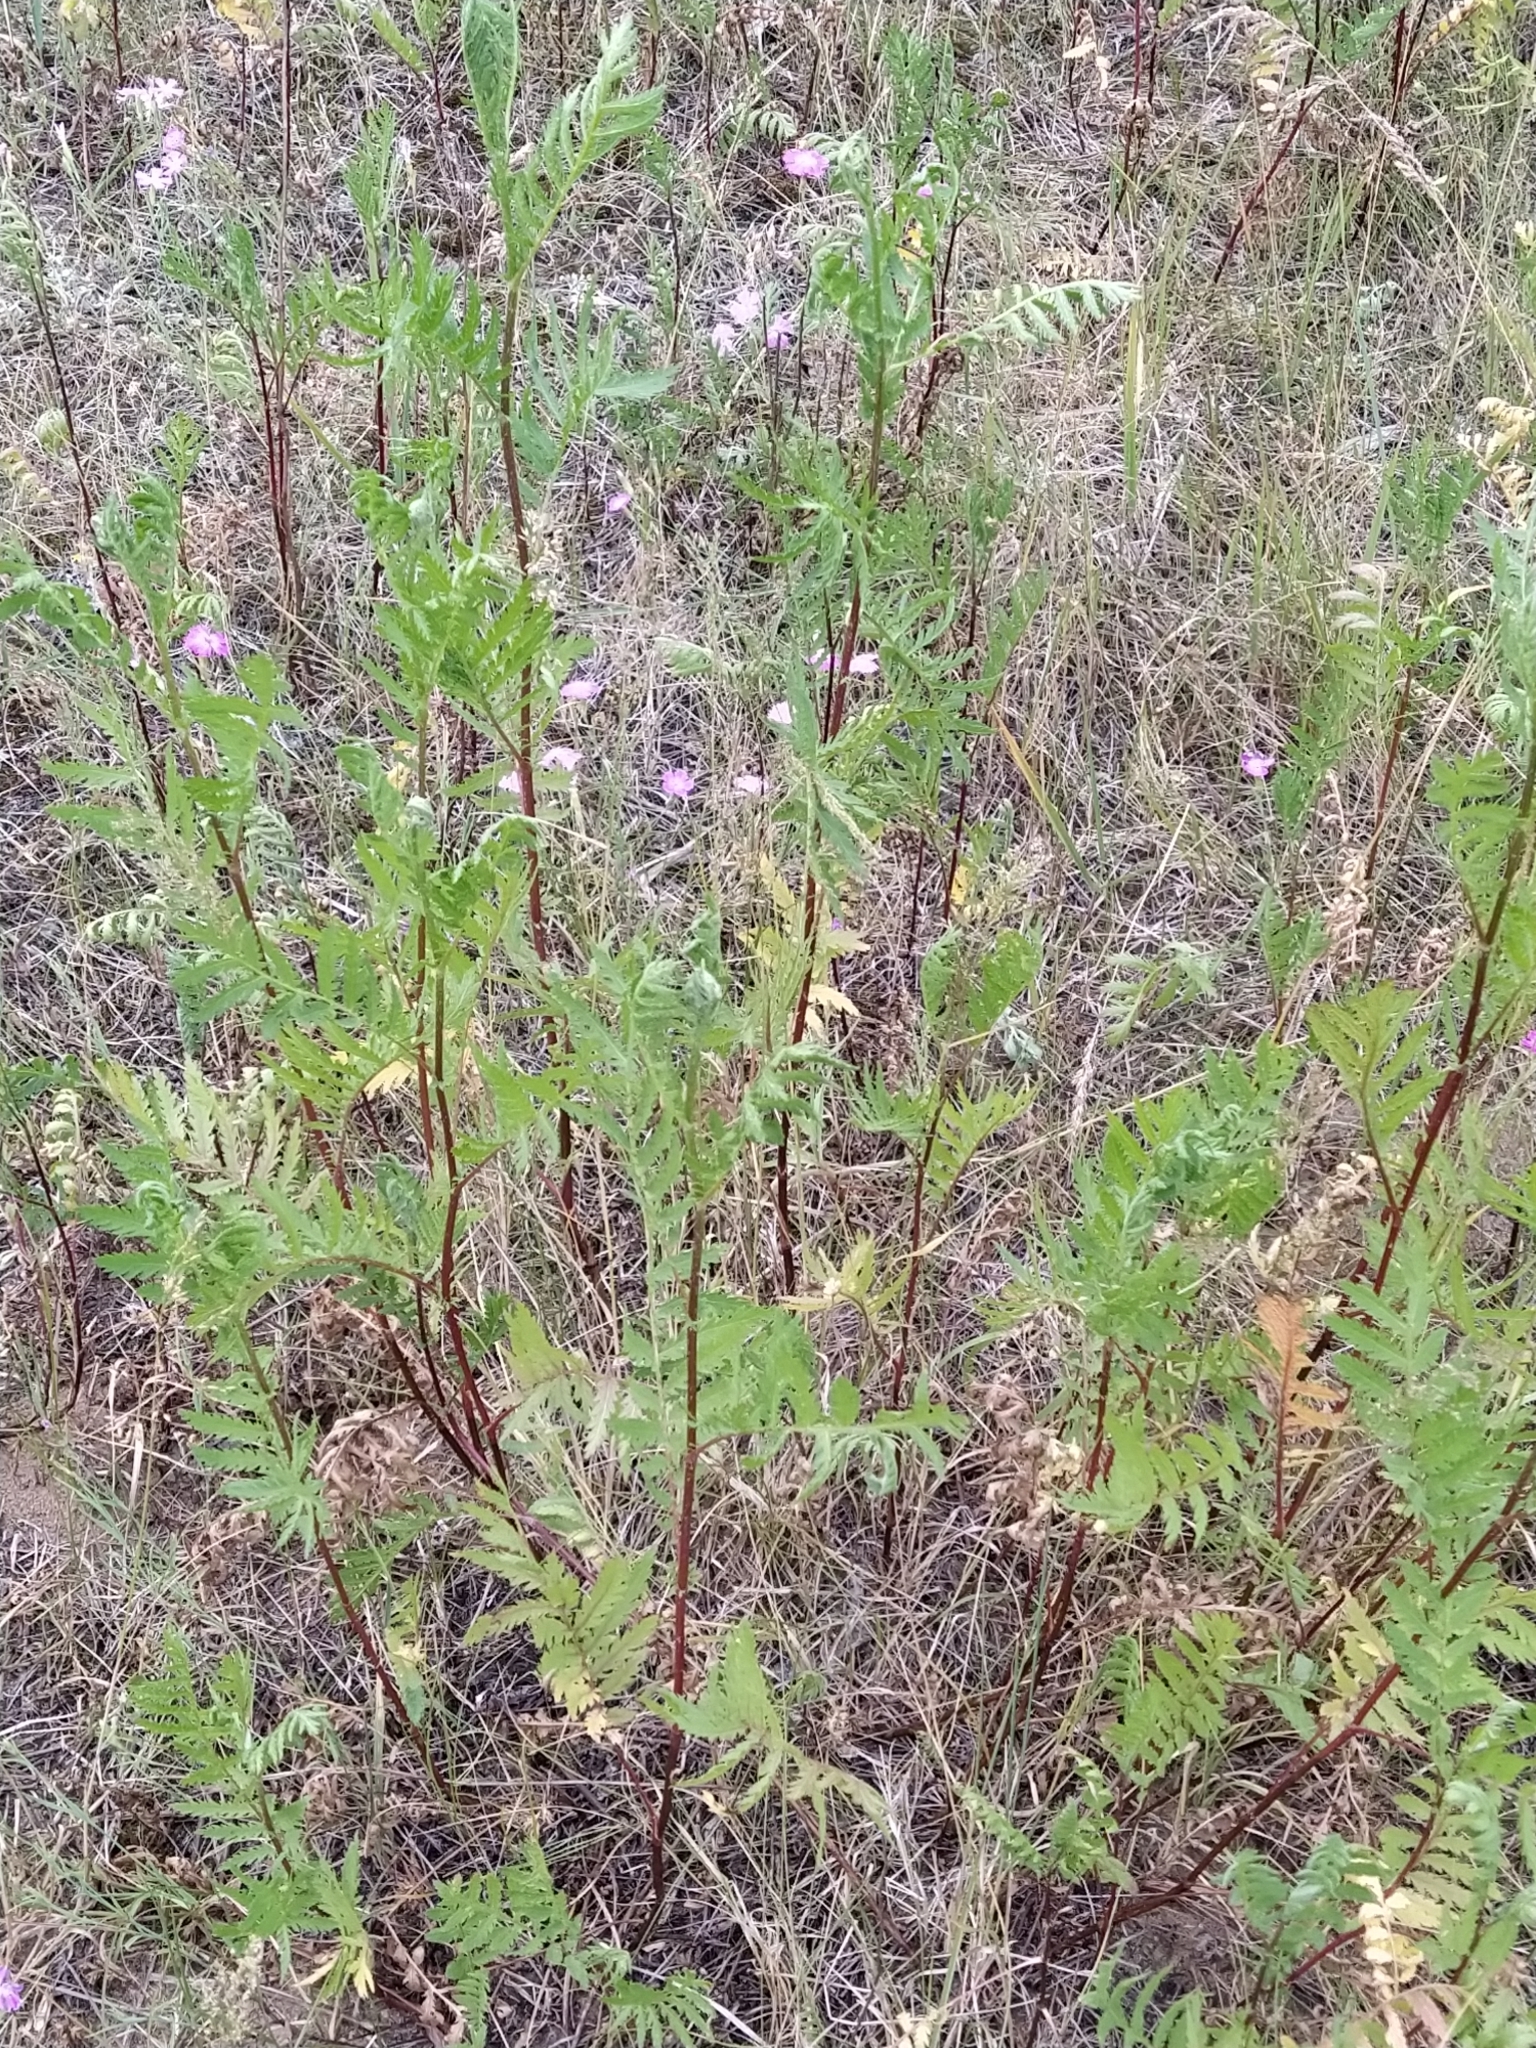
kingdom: Plantae
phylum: Tracheophyta
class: Magnoliopsida
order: Asterales
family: Asteraceae
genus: Tanacetum
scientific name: Tanacetum vulgare
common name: Common tansy
